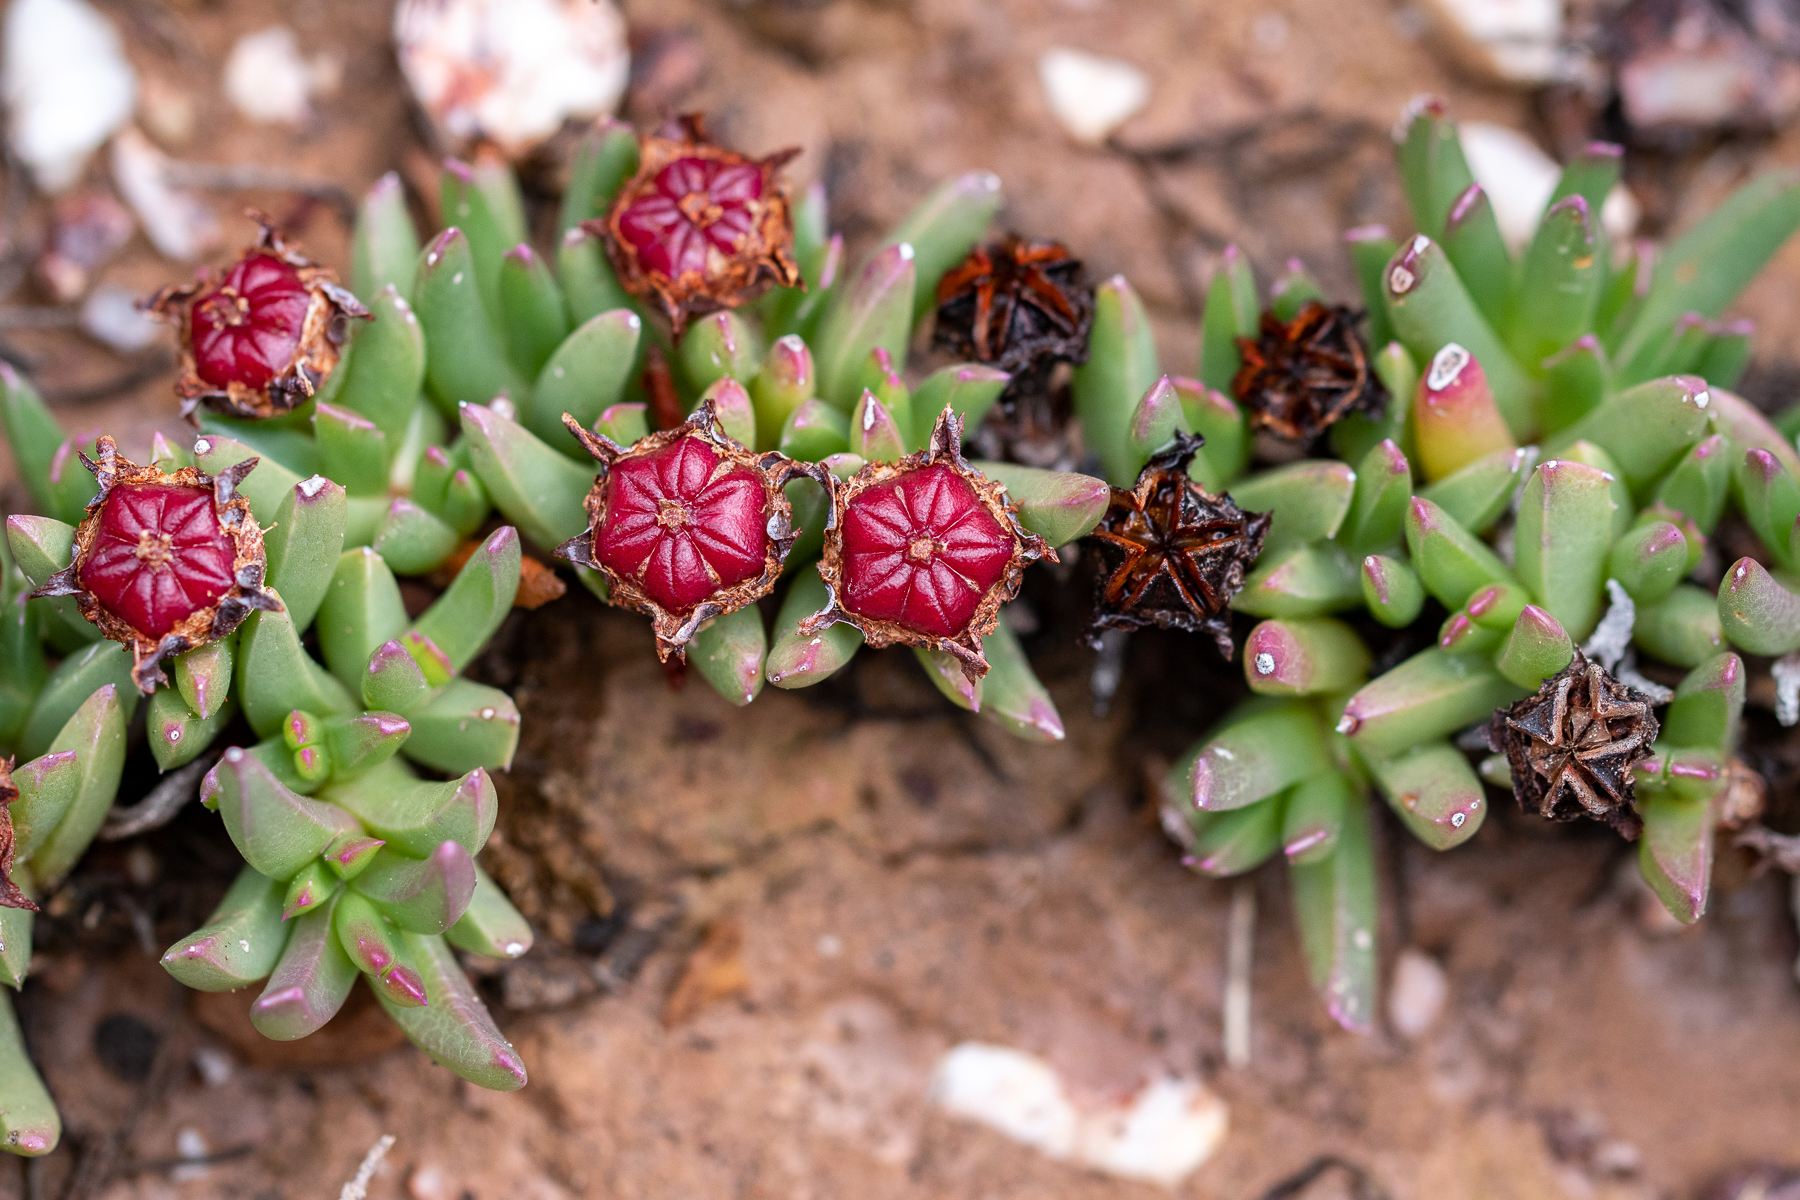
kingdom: Plantae
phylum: Tracheophyta
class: Magnoliopsida
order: Caryophyllales
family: Aizoaceae
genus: Acrodon
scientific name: Acrodon parvifolius
